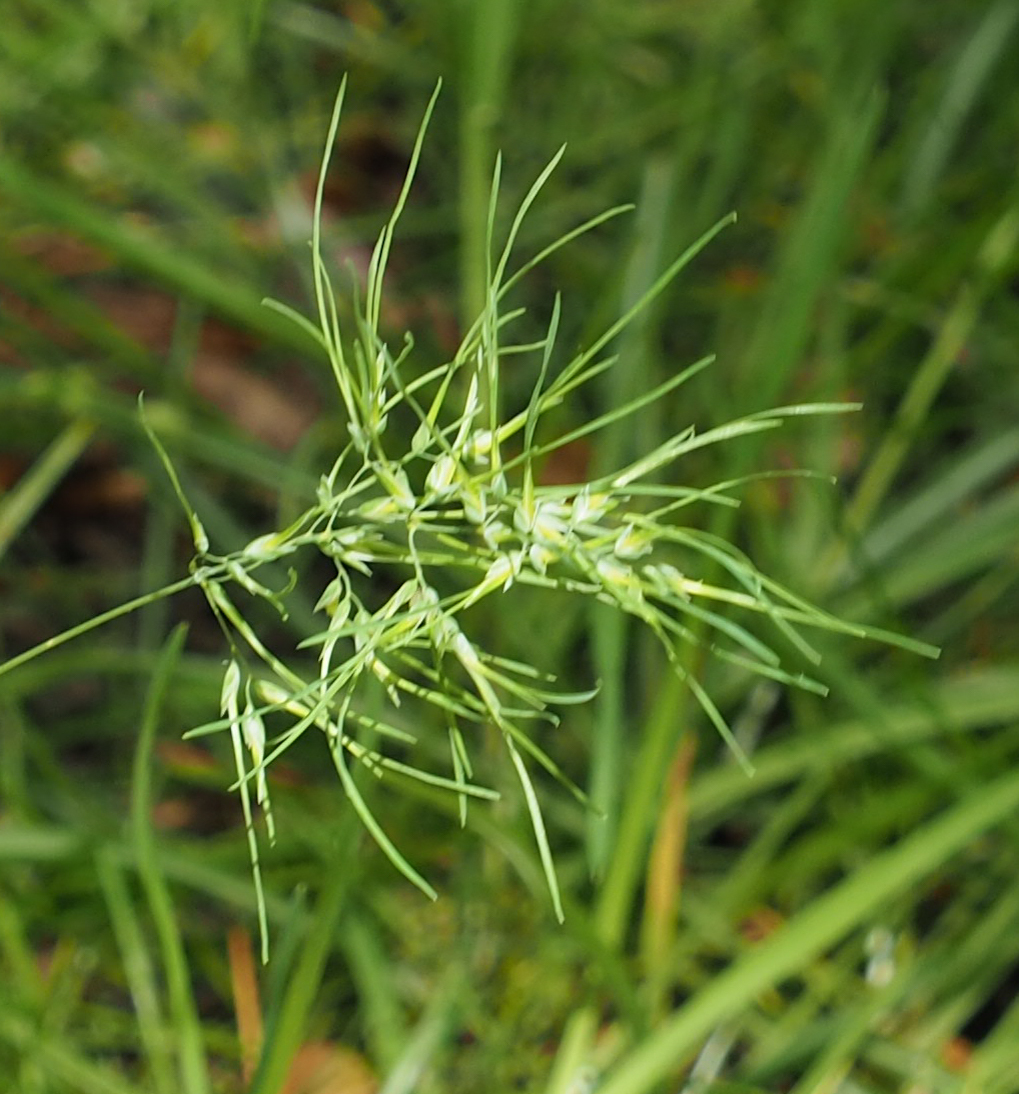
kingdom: Plantae
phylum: Tracheophyta
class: Liliopsida
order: Poales
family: Poaceae
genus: Poa
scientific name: Poa bulbosa
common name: Bulbous bluegrass
